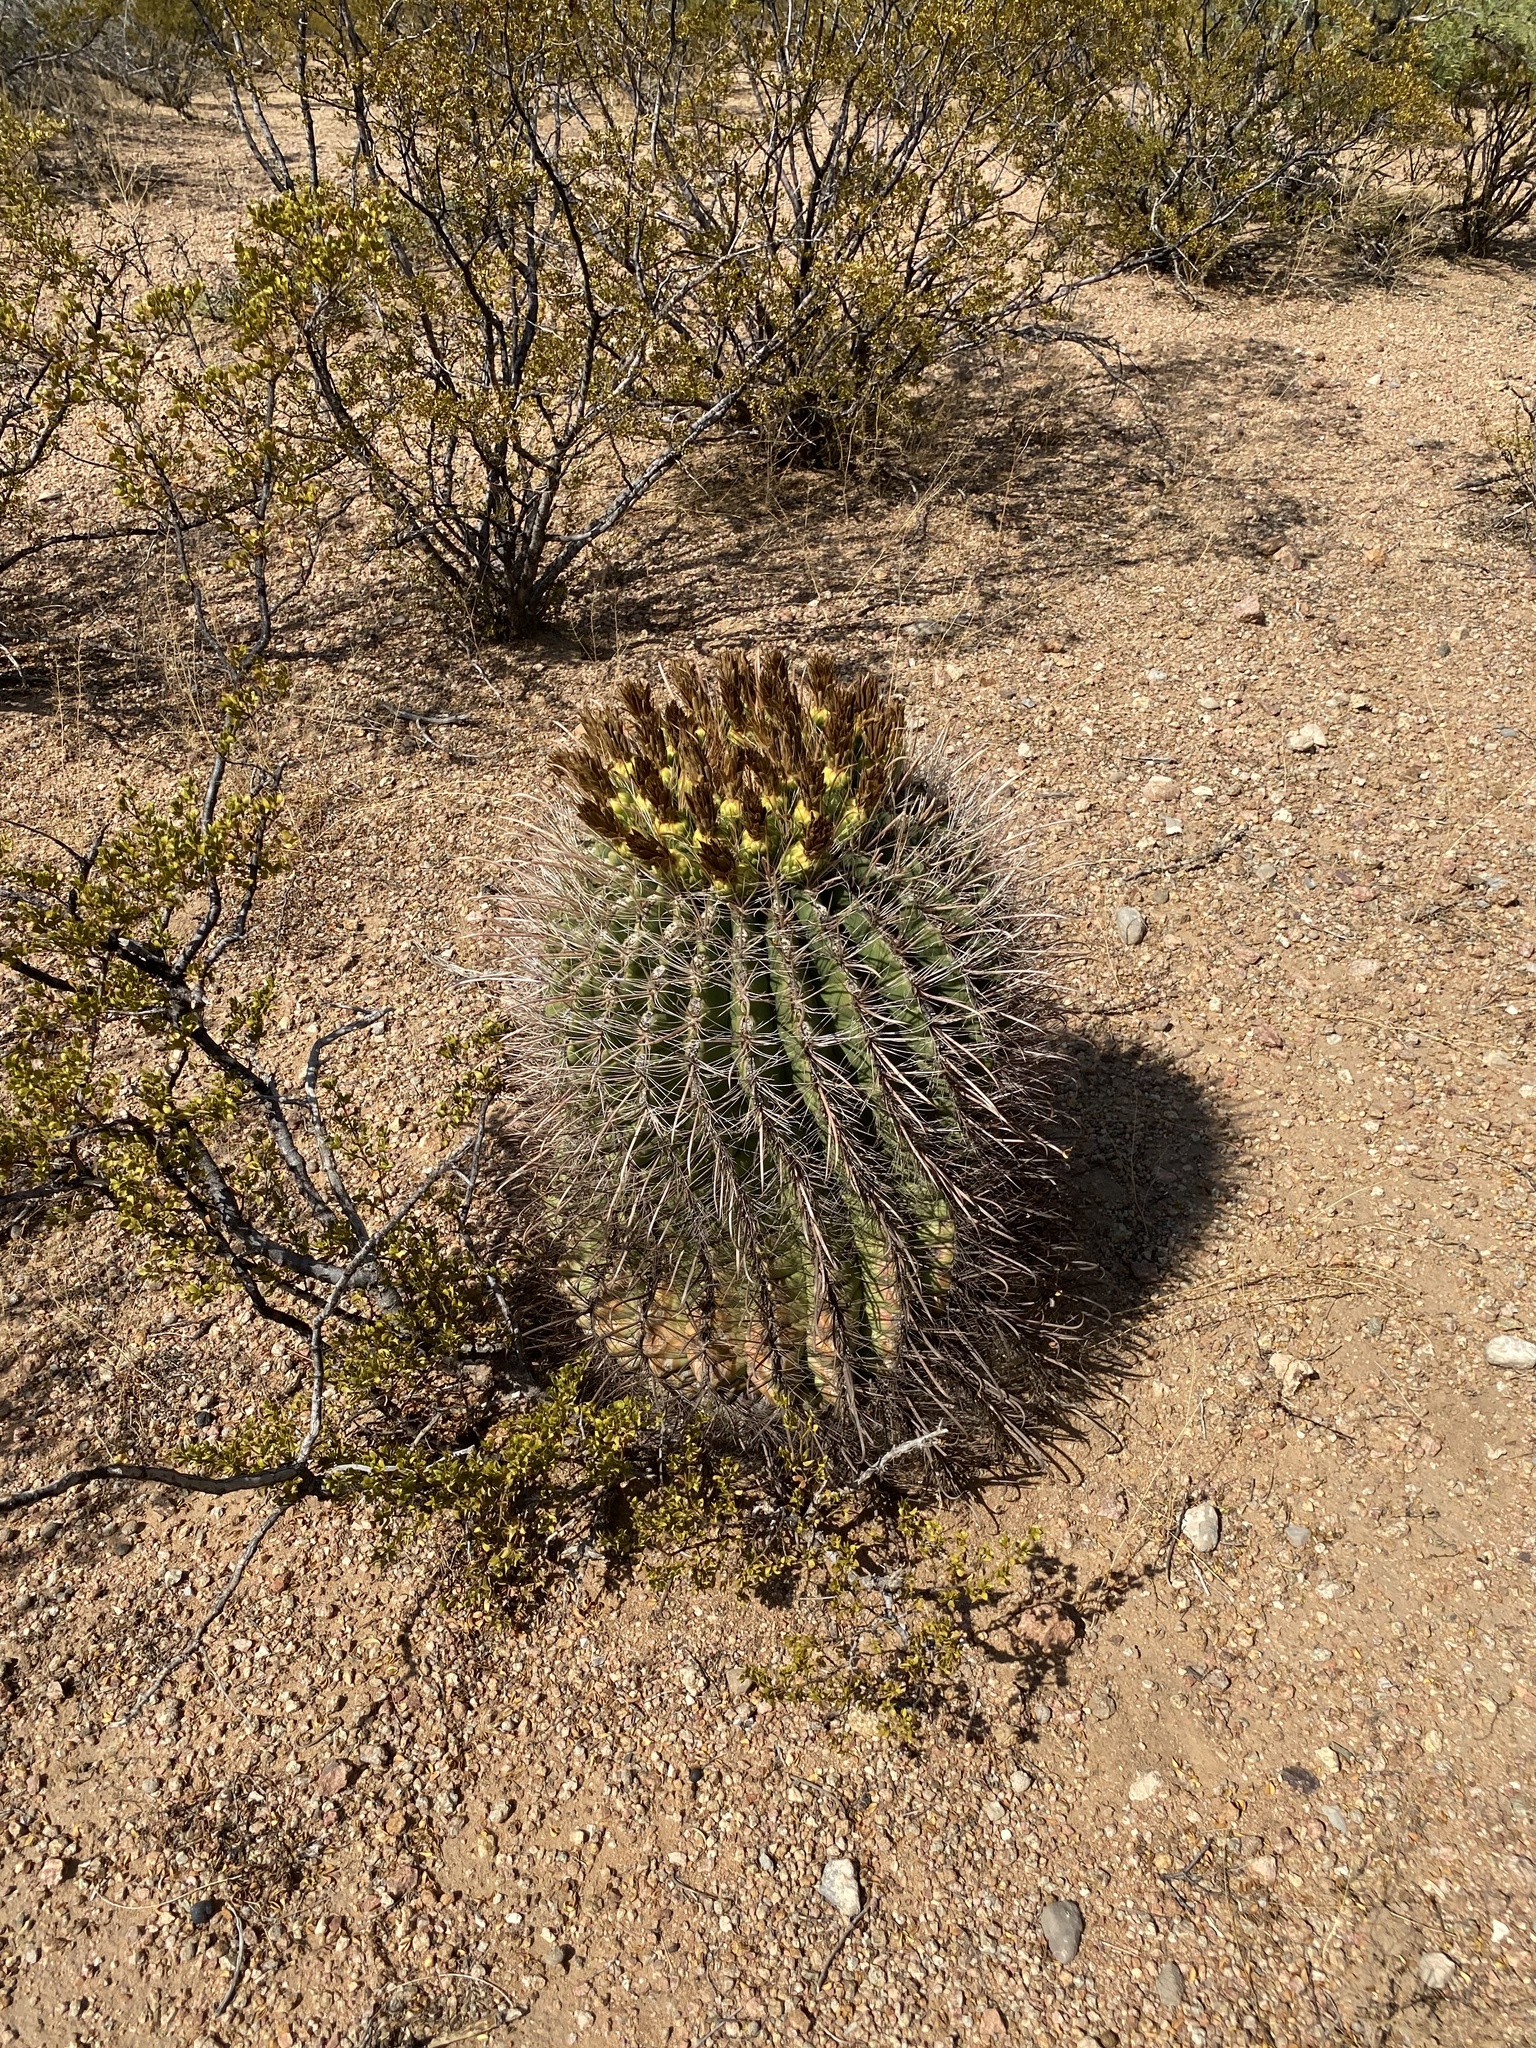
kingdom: Plantae
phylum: Tracheophyta
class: Magnoliopsida
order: Caryophyllales
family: Cactaceae
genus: Ferocactus
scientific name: Ferocactus wislizeni
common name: Candy barrel cactus
